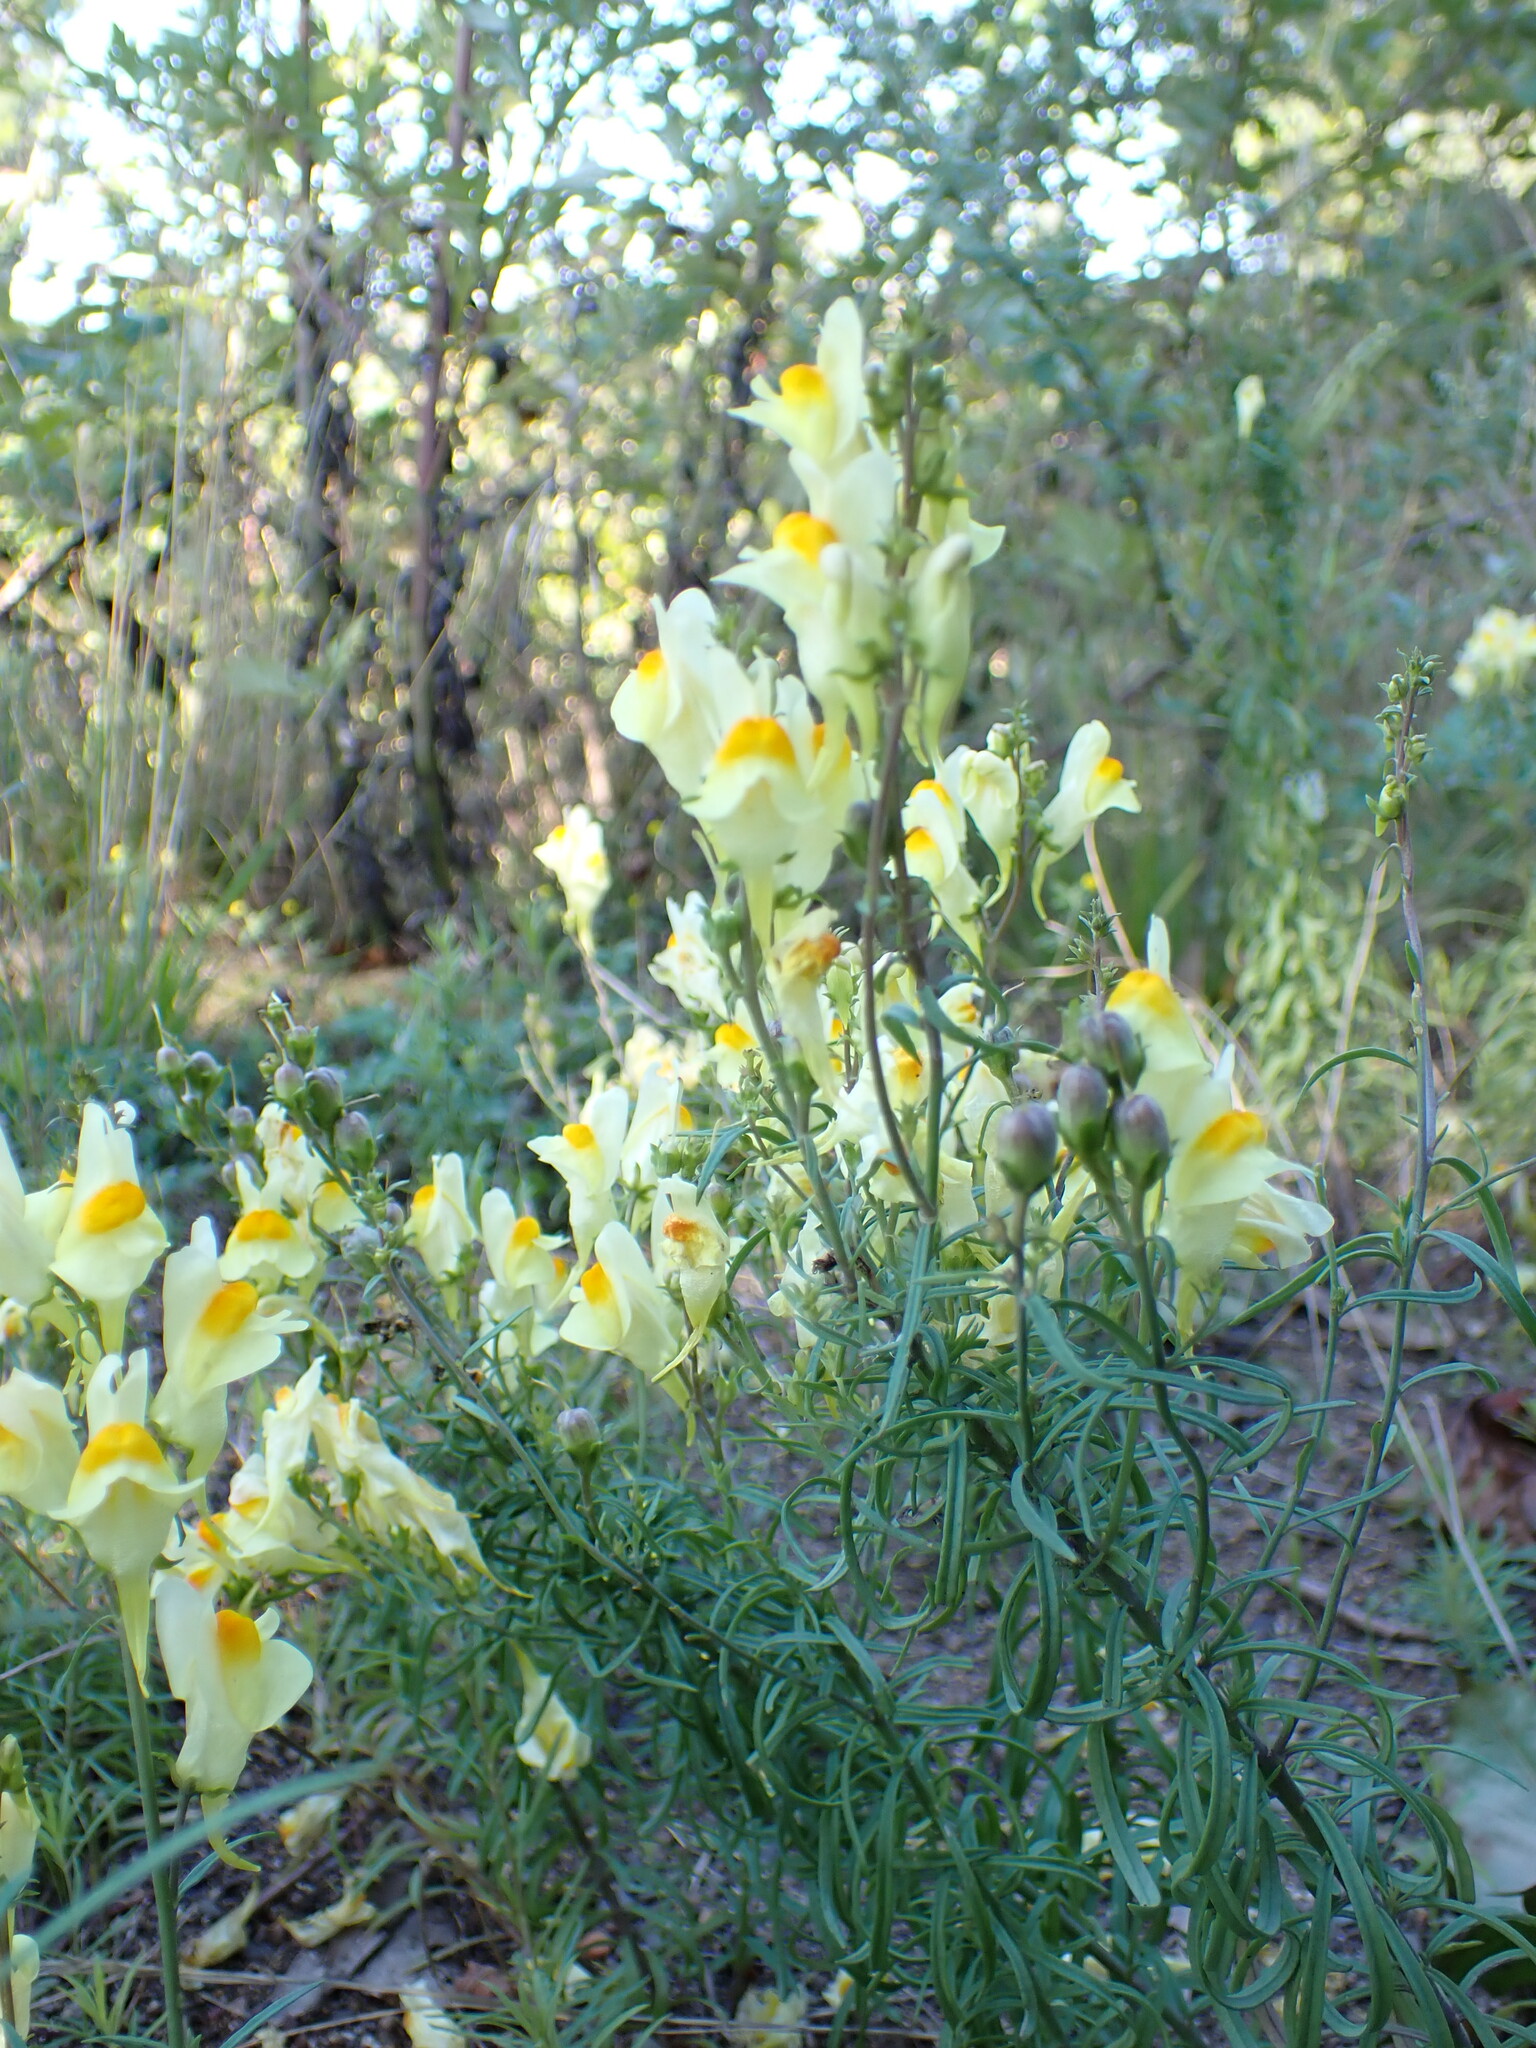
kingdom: Plantae
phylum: Tracheophyta
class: Magnoliopsida
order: Lamiales
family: Plantaginaceae
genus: Linaria
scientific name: Linaria vulgaris
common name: Butter and eggs
